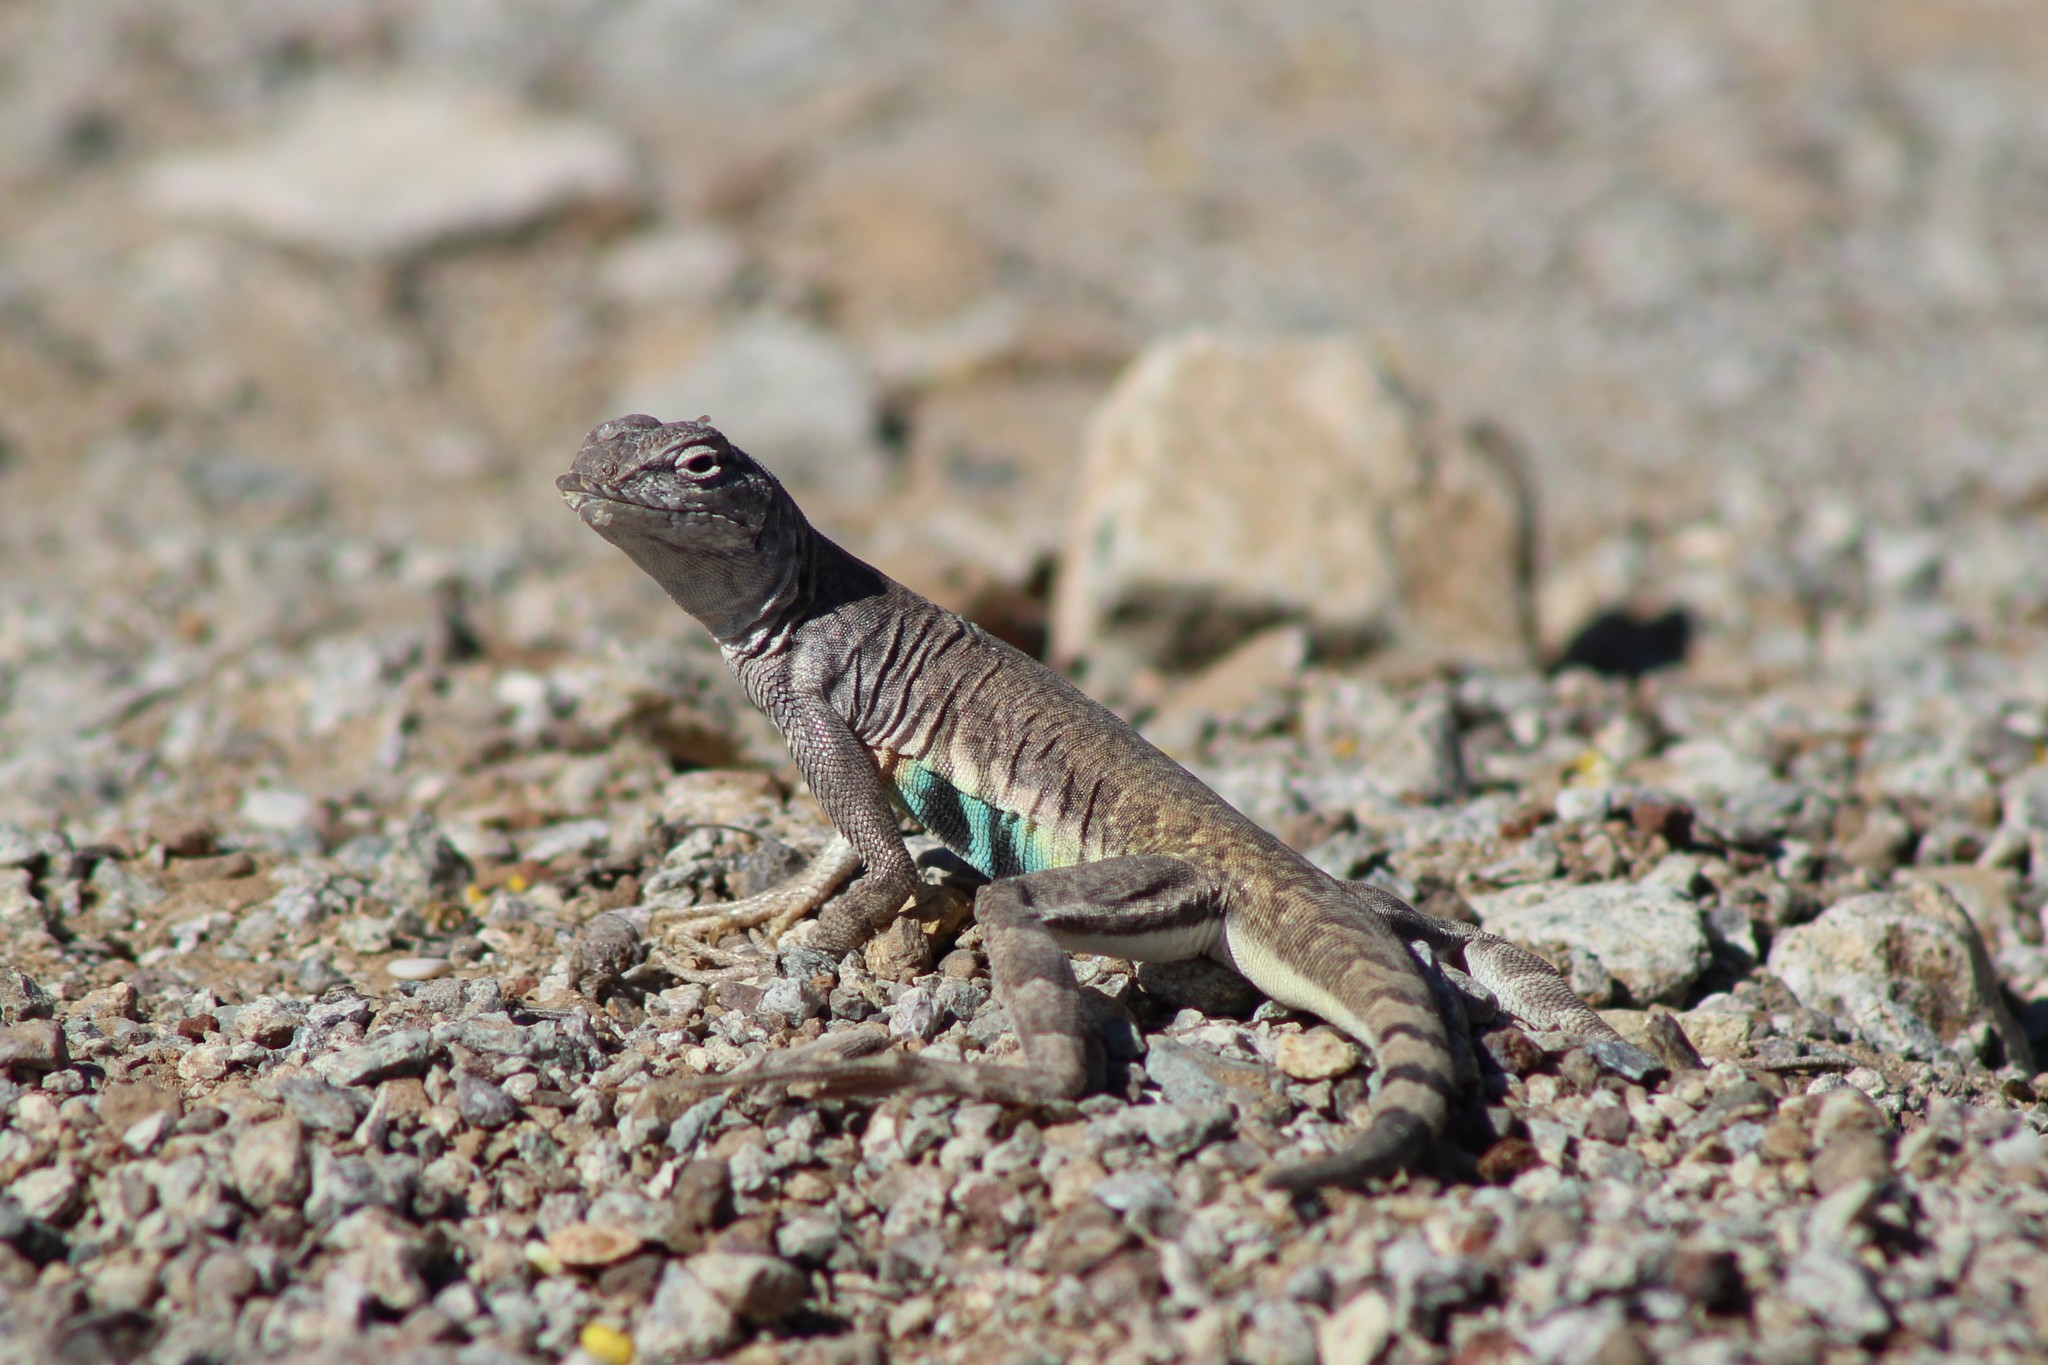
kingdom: Animalia
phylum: Chordata
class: Squamata
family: Phrynosomatidae
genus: Callisaurus
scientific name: Callisaurus draconoides
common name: Zebra-tailed lizard
